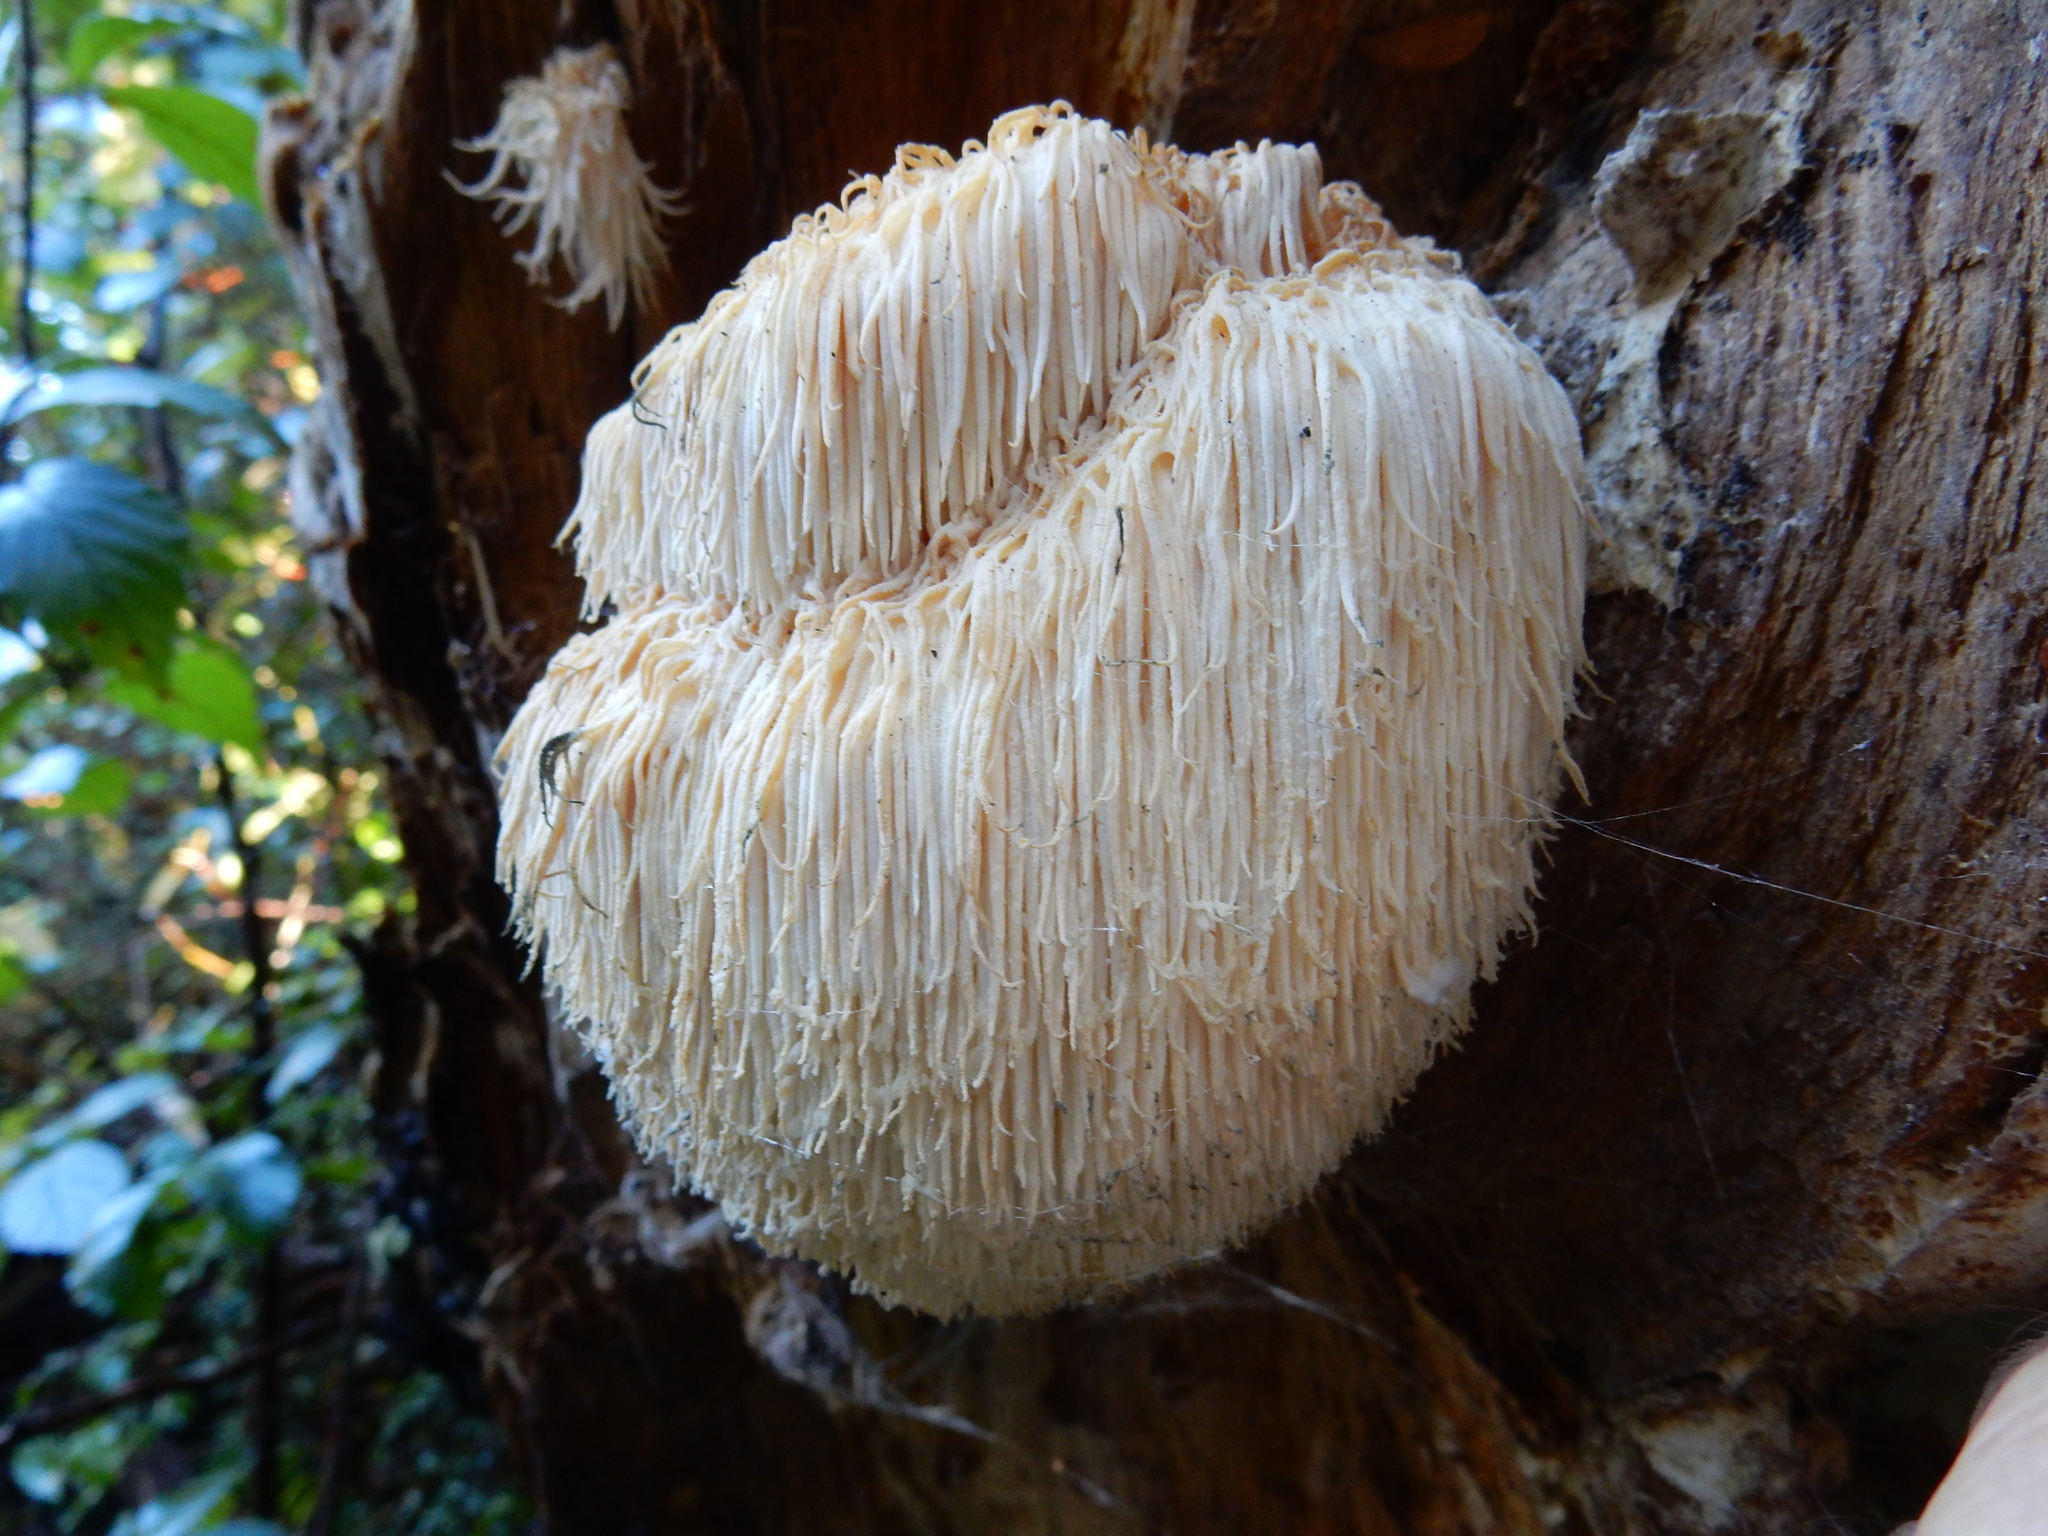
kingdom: Fungi
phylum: Basidiomycota
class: Agaricomycetes
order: Russulales
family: Hericiaceae
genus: Hericium
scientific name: Hericium novae-zealandiae
